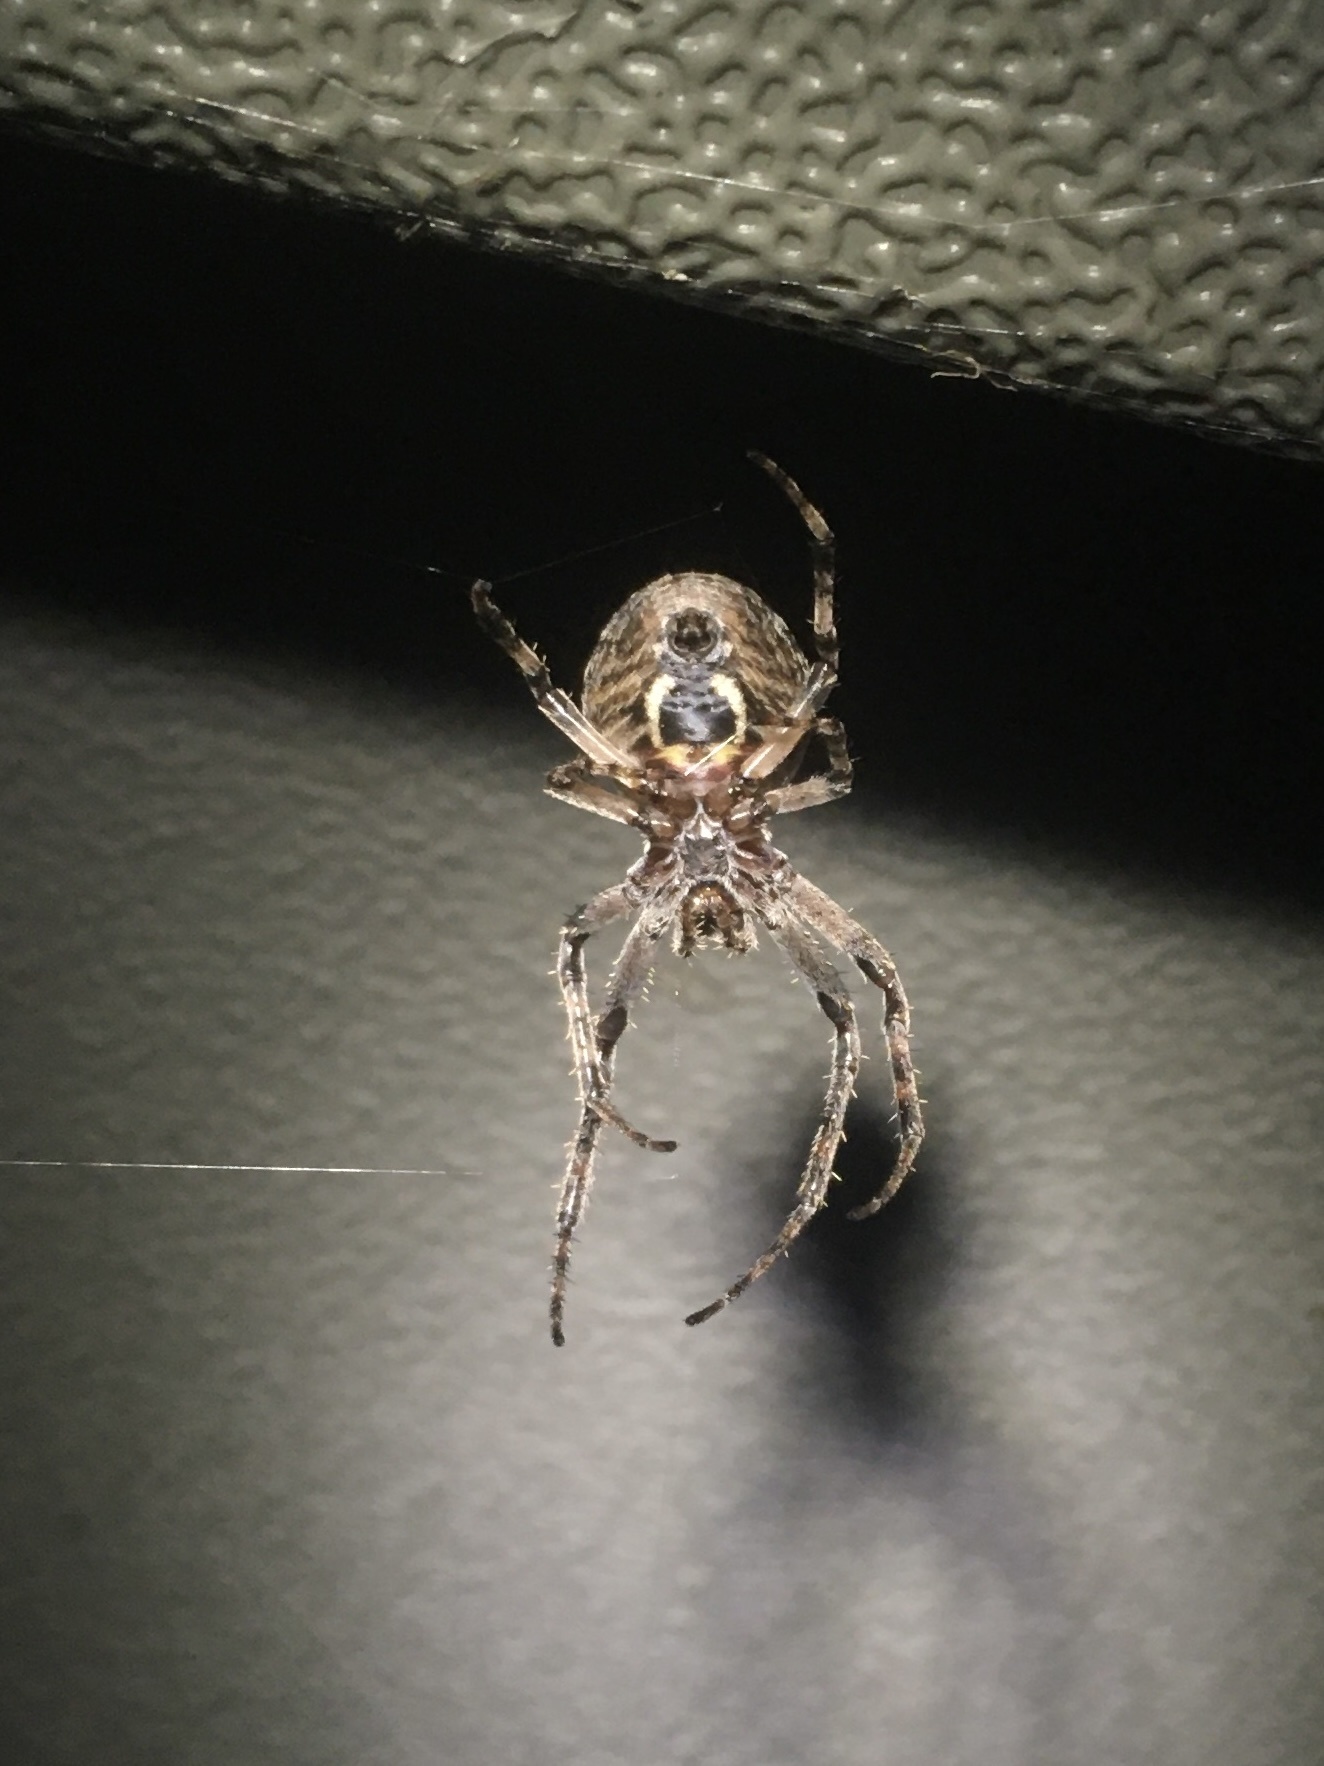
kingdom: Animalia
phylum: Arthropoda
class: Arachnida
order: Araneae
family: Araneidae
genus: Larinioides
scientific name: Larinioides sclopetarius
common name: Bridge orbweaver
